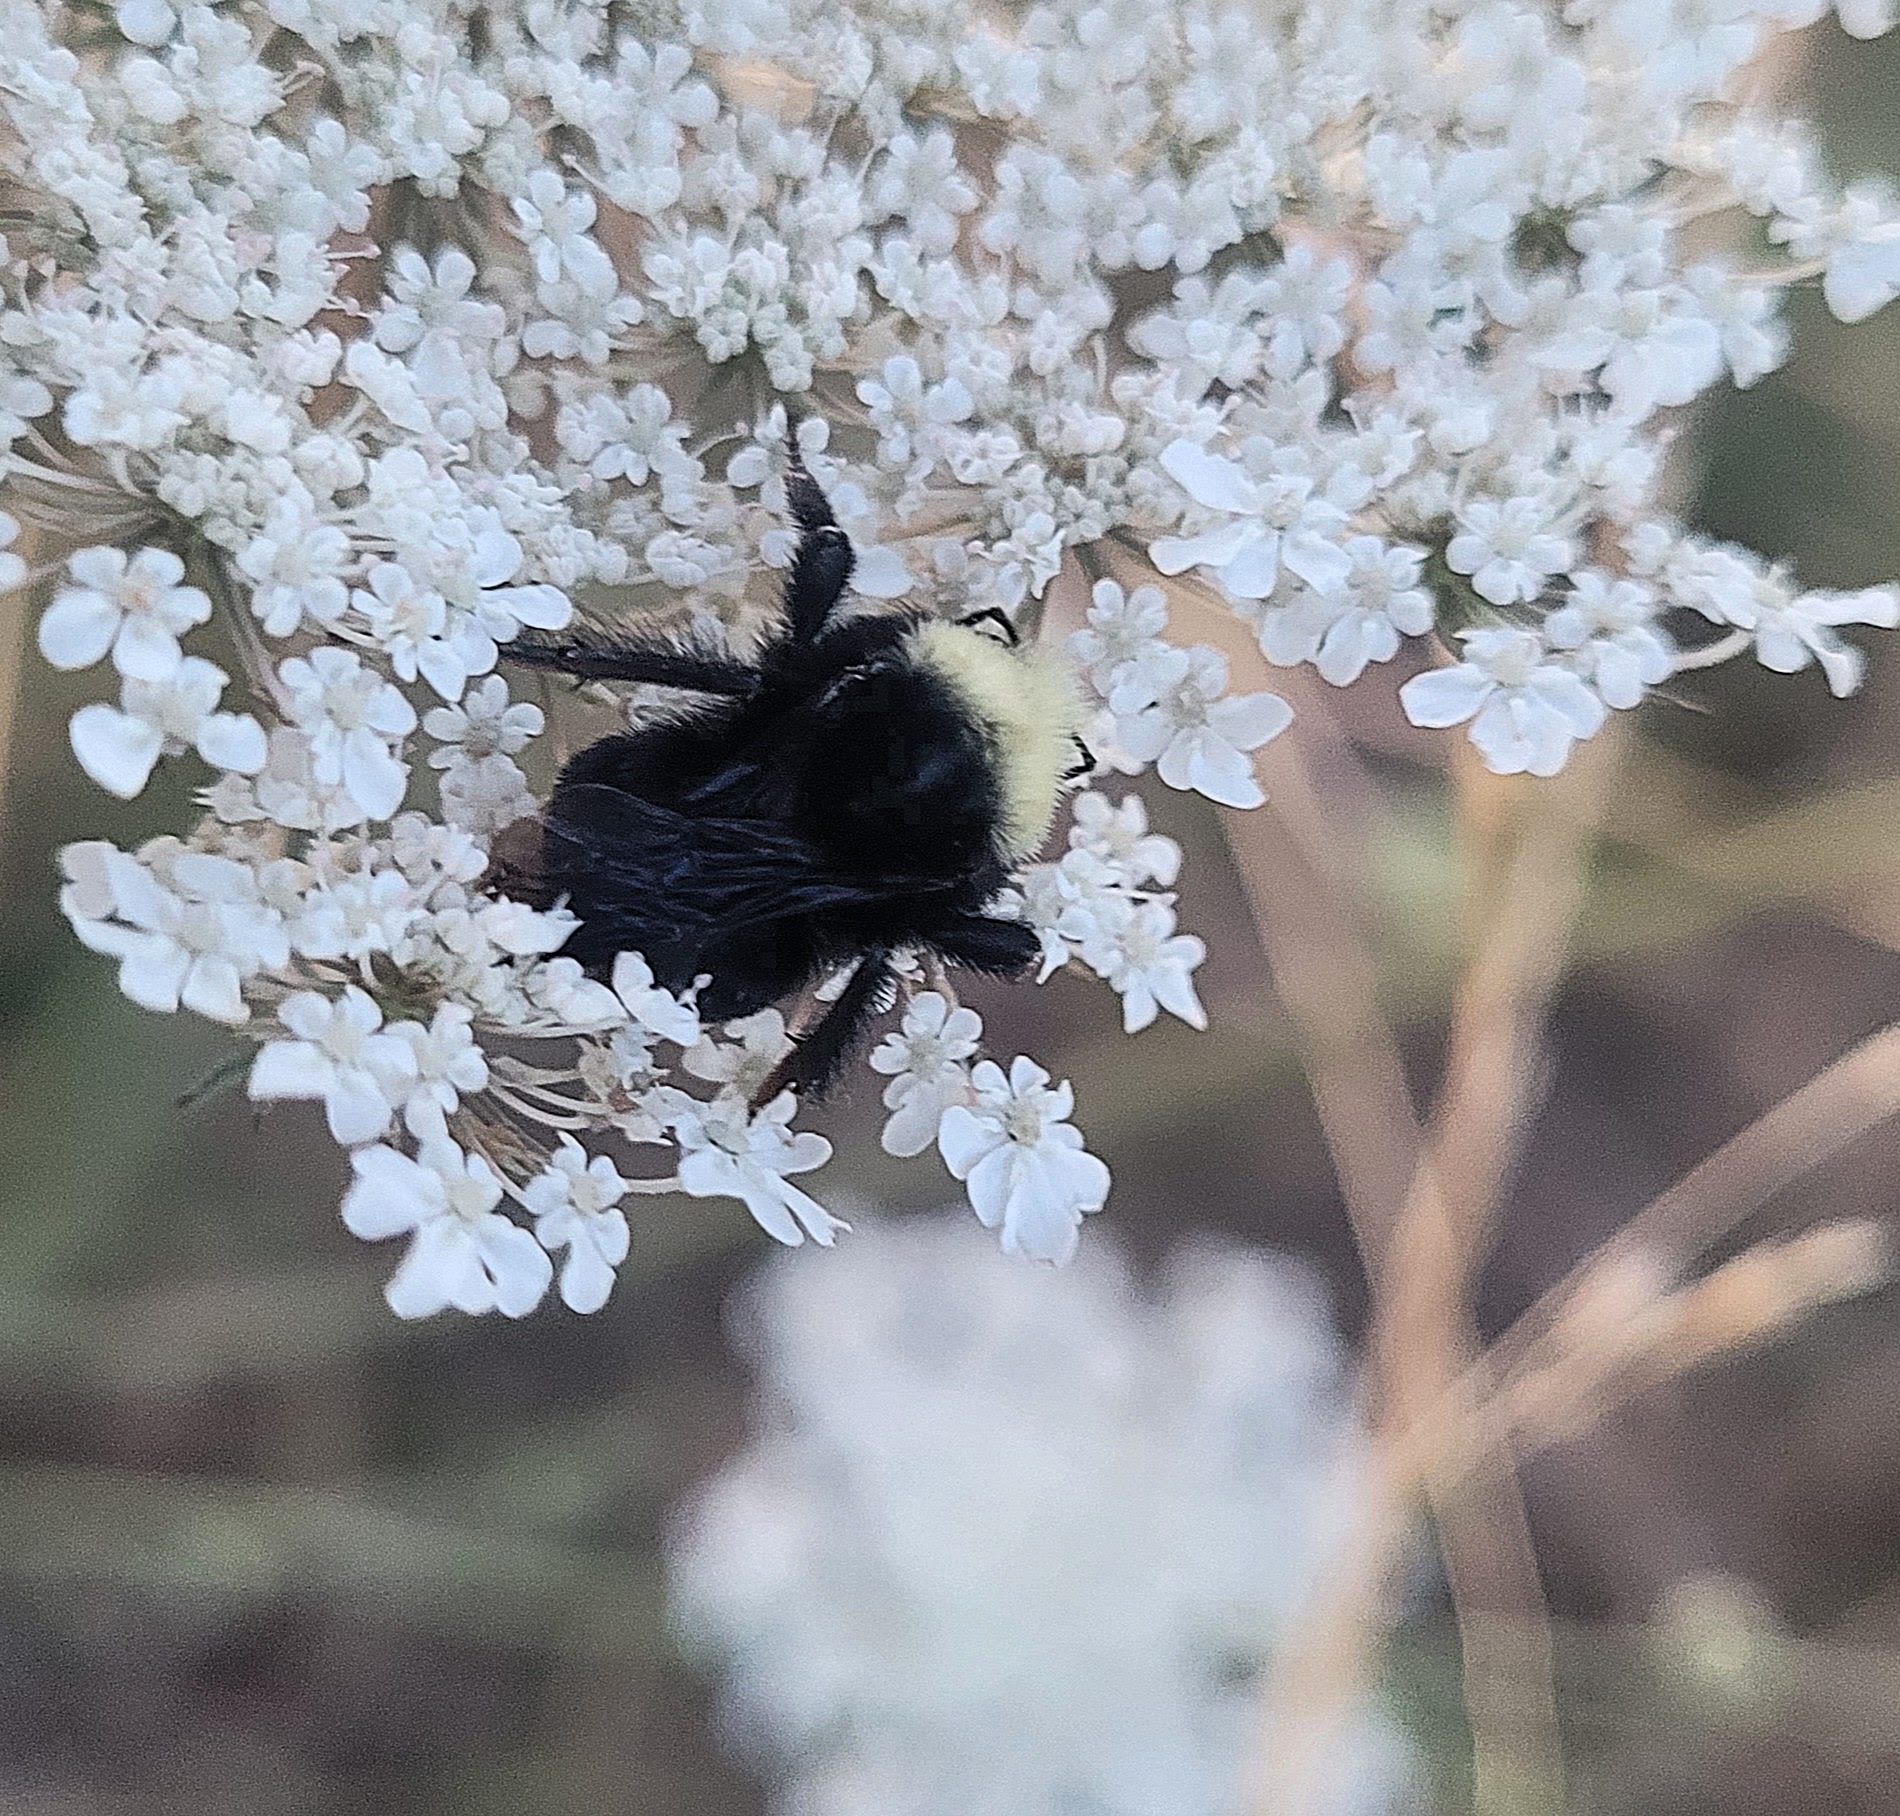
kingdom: Animalia
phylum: Arthropoda
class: Insecta
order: Hymenoptera
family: Apidae
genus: Bombus
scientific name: Bombus vosnesenskii
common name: Vosnesensky bumble bee
